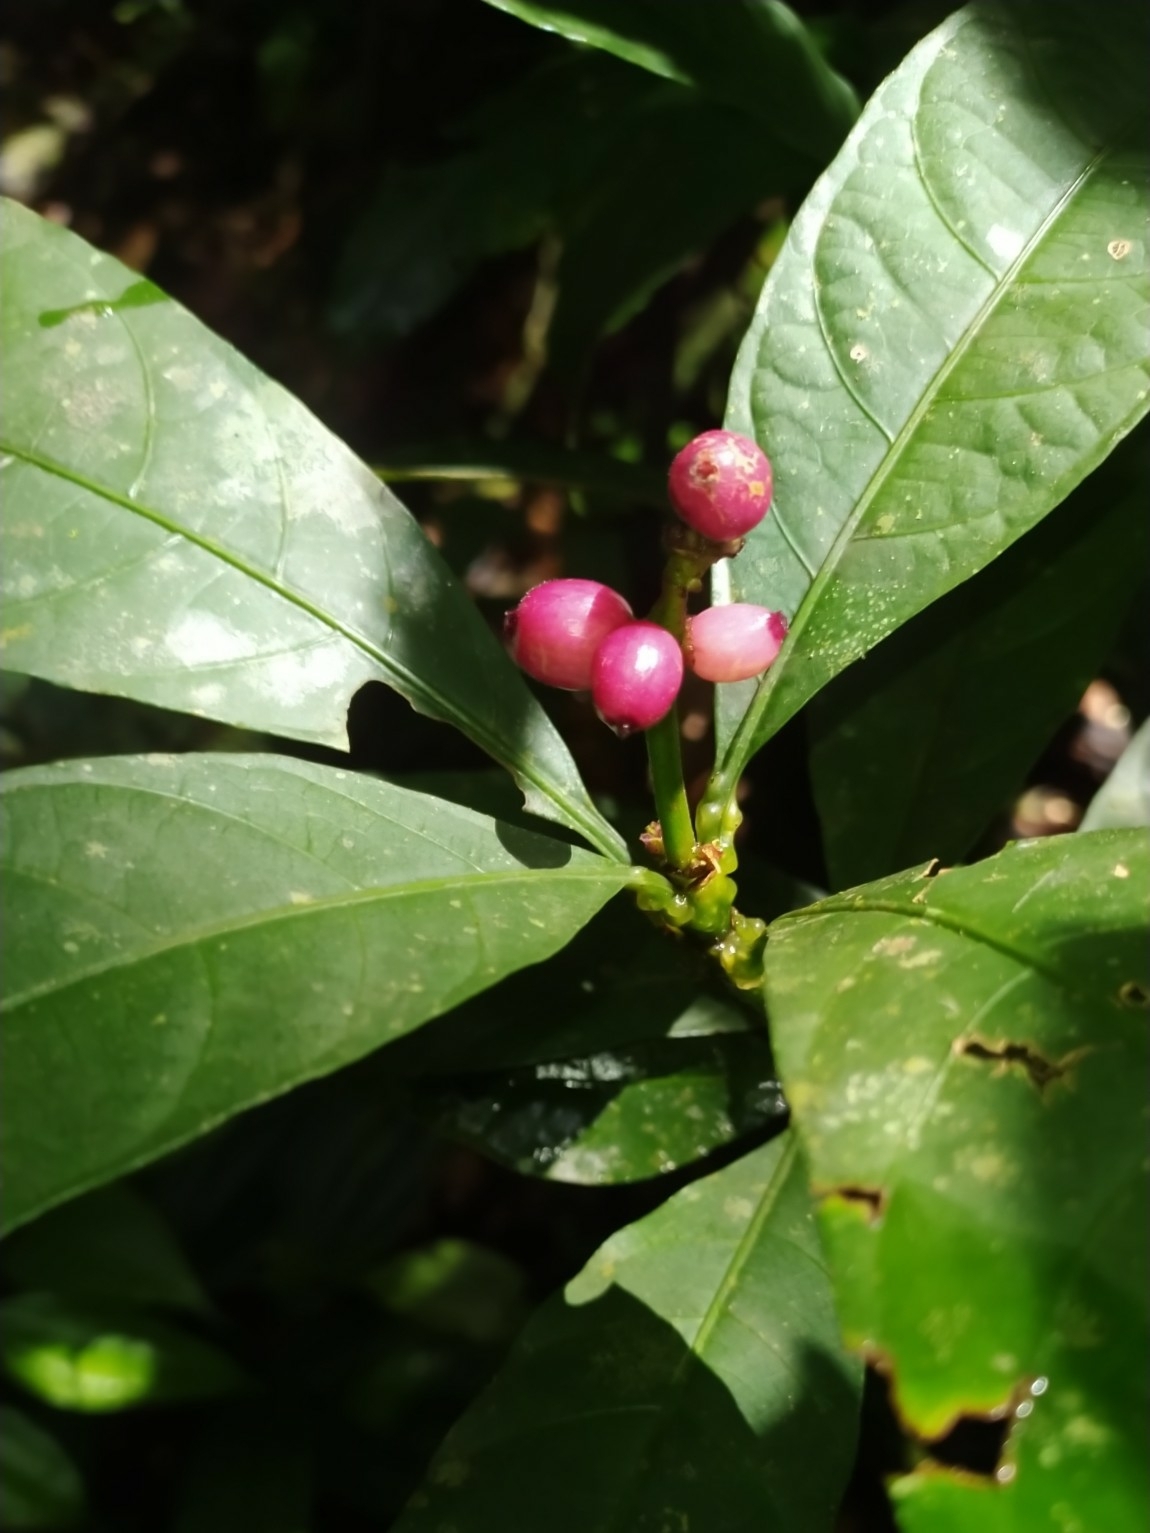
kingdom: Plantae
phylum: Tracheophyta
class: Magnoliopsida
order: Gentianales
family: Rubiaceae
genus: Carapichea
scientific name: Carapichea adinantha
